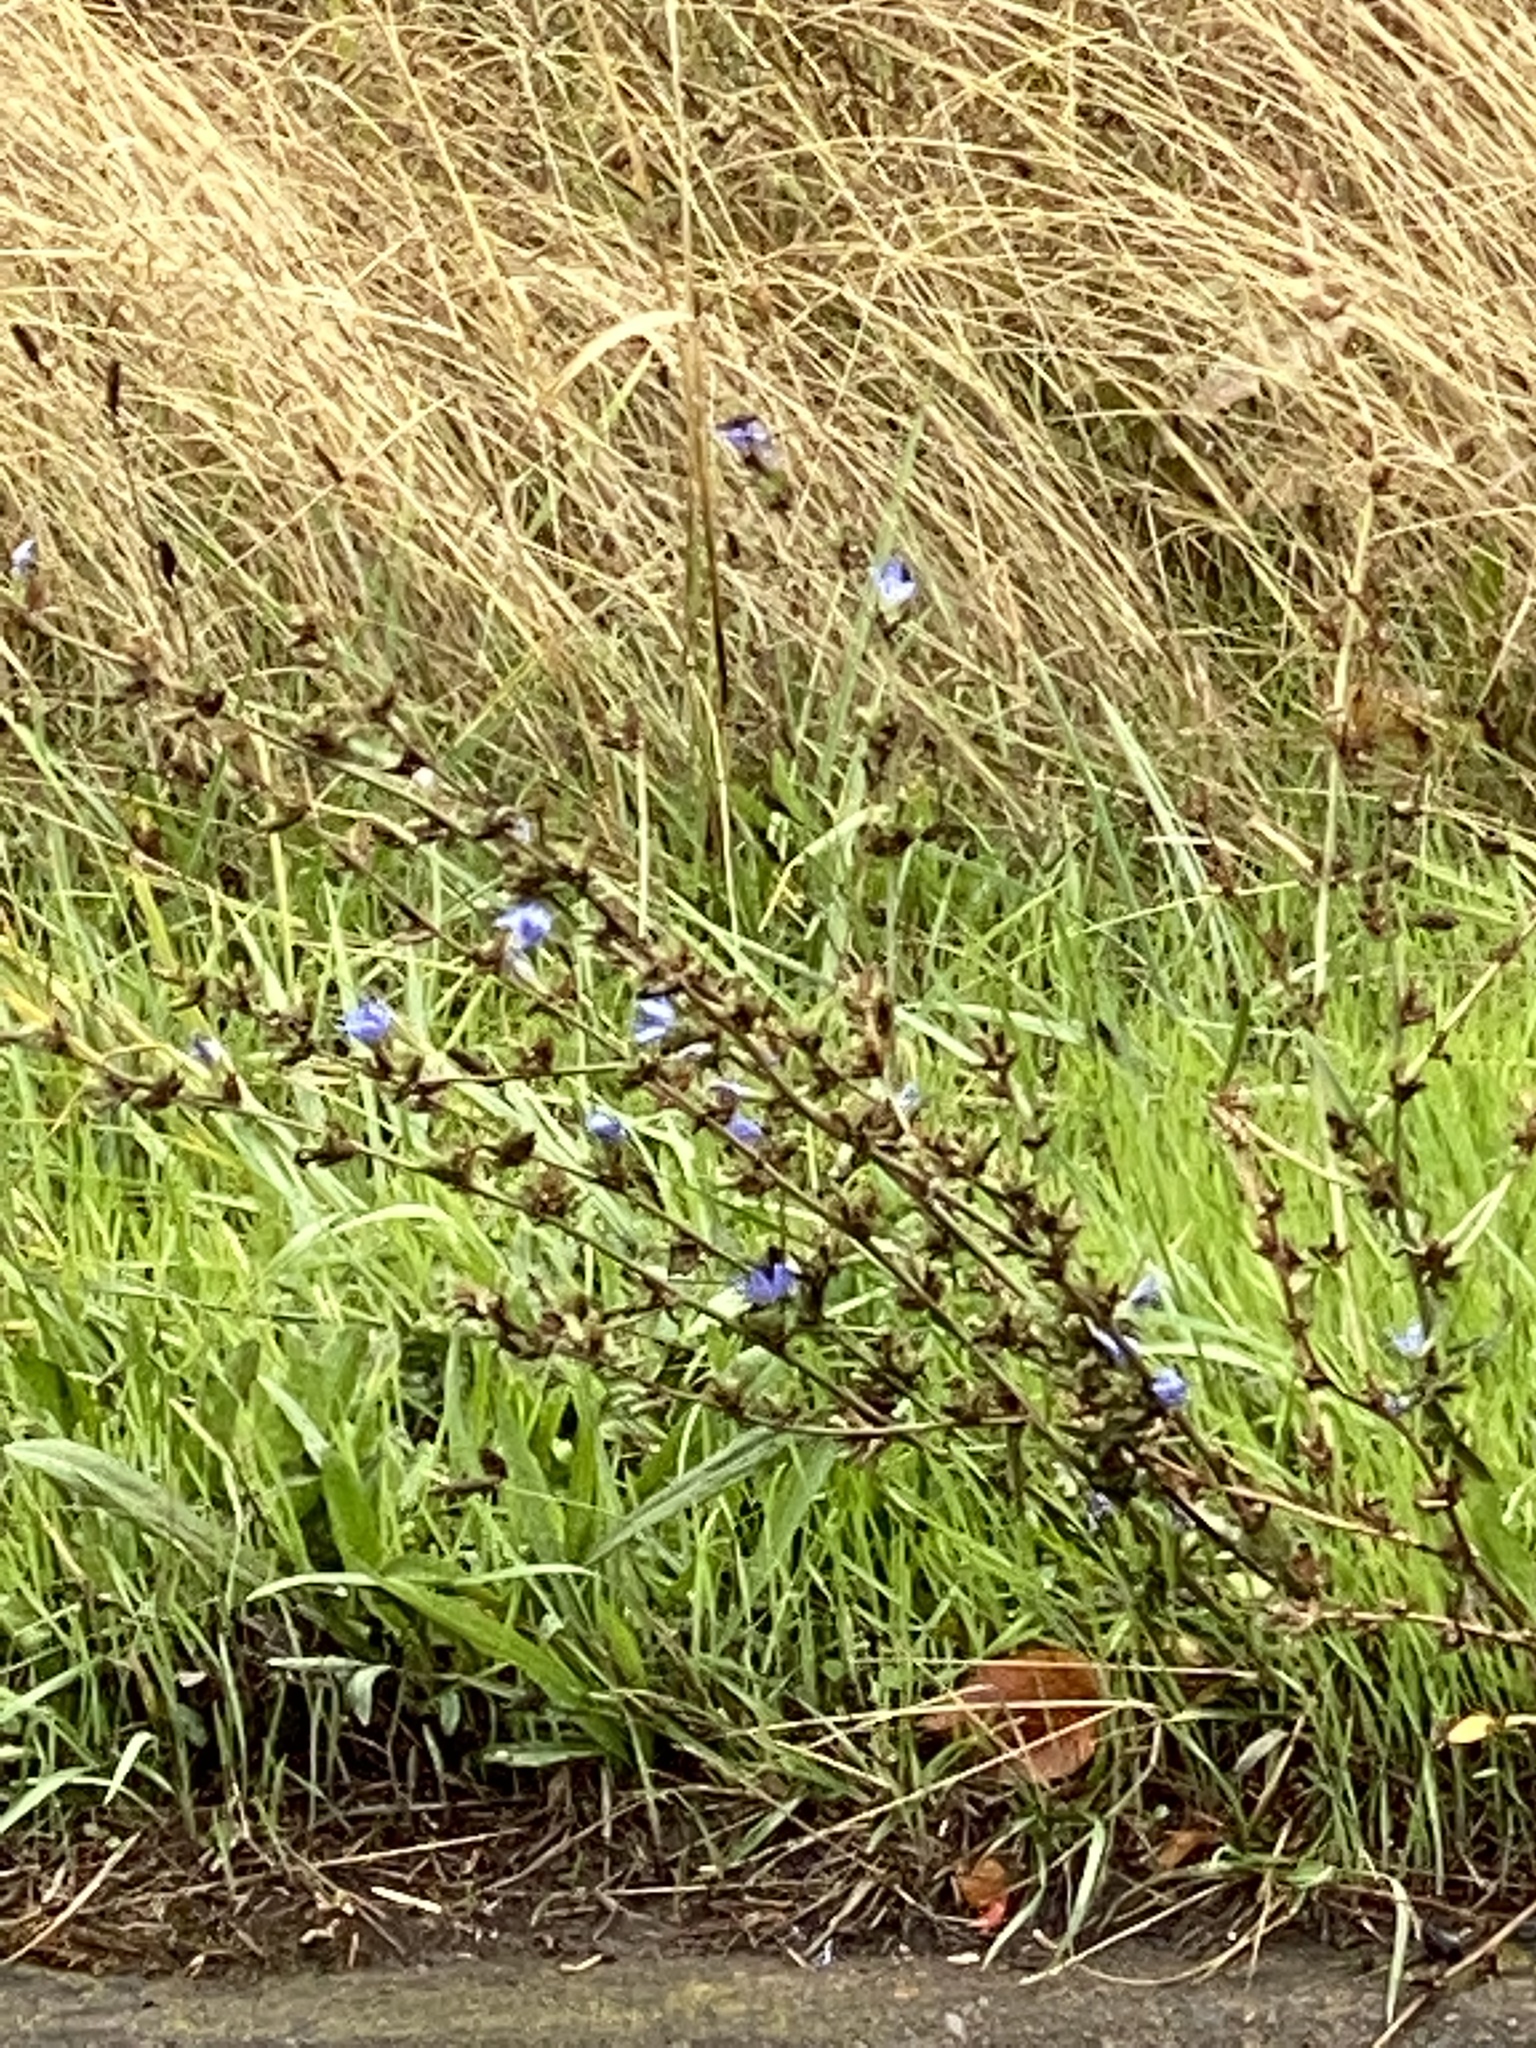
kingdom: Plantae
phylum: Tracheophyta
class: Magnoliopsida
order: Asterales
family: Asteraceae
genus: Cichorium
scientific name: Cichorium intybus
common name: Chicory
